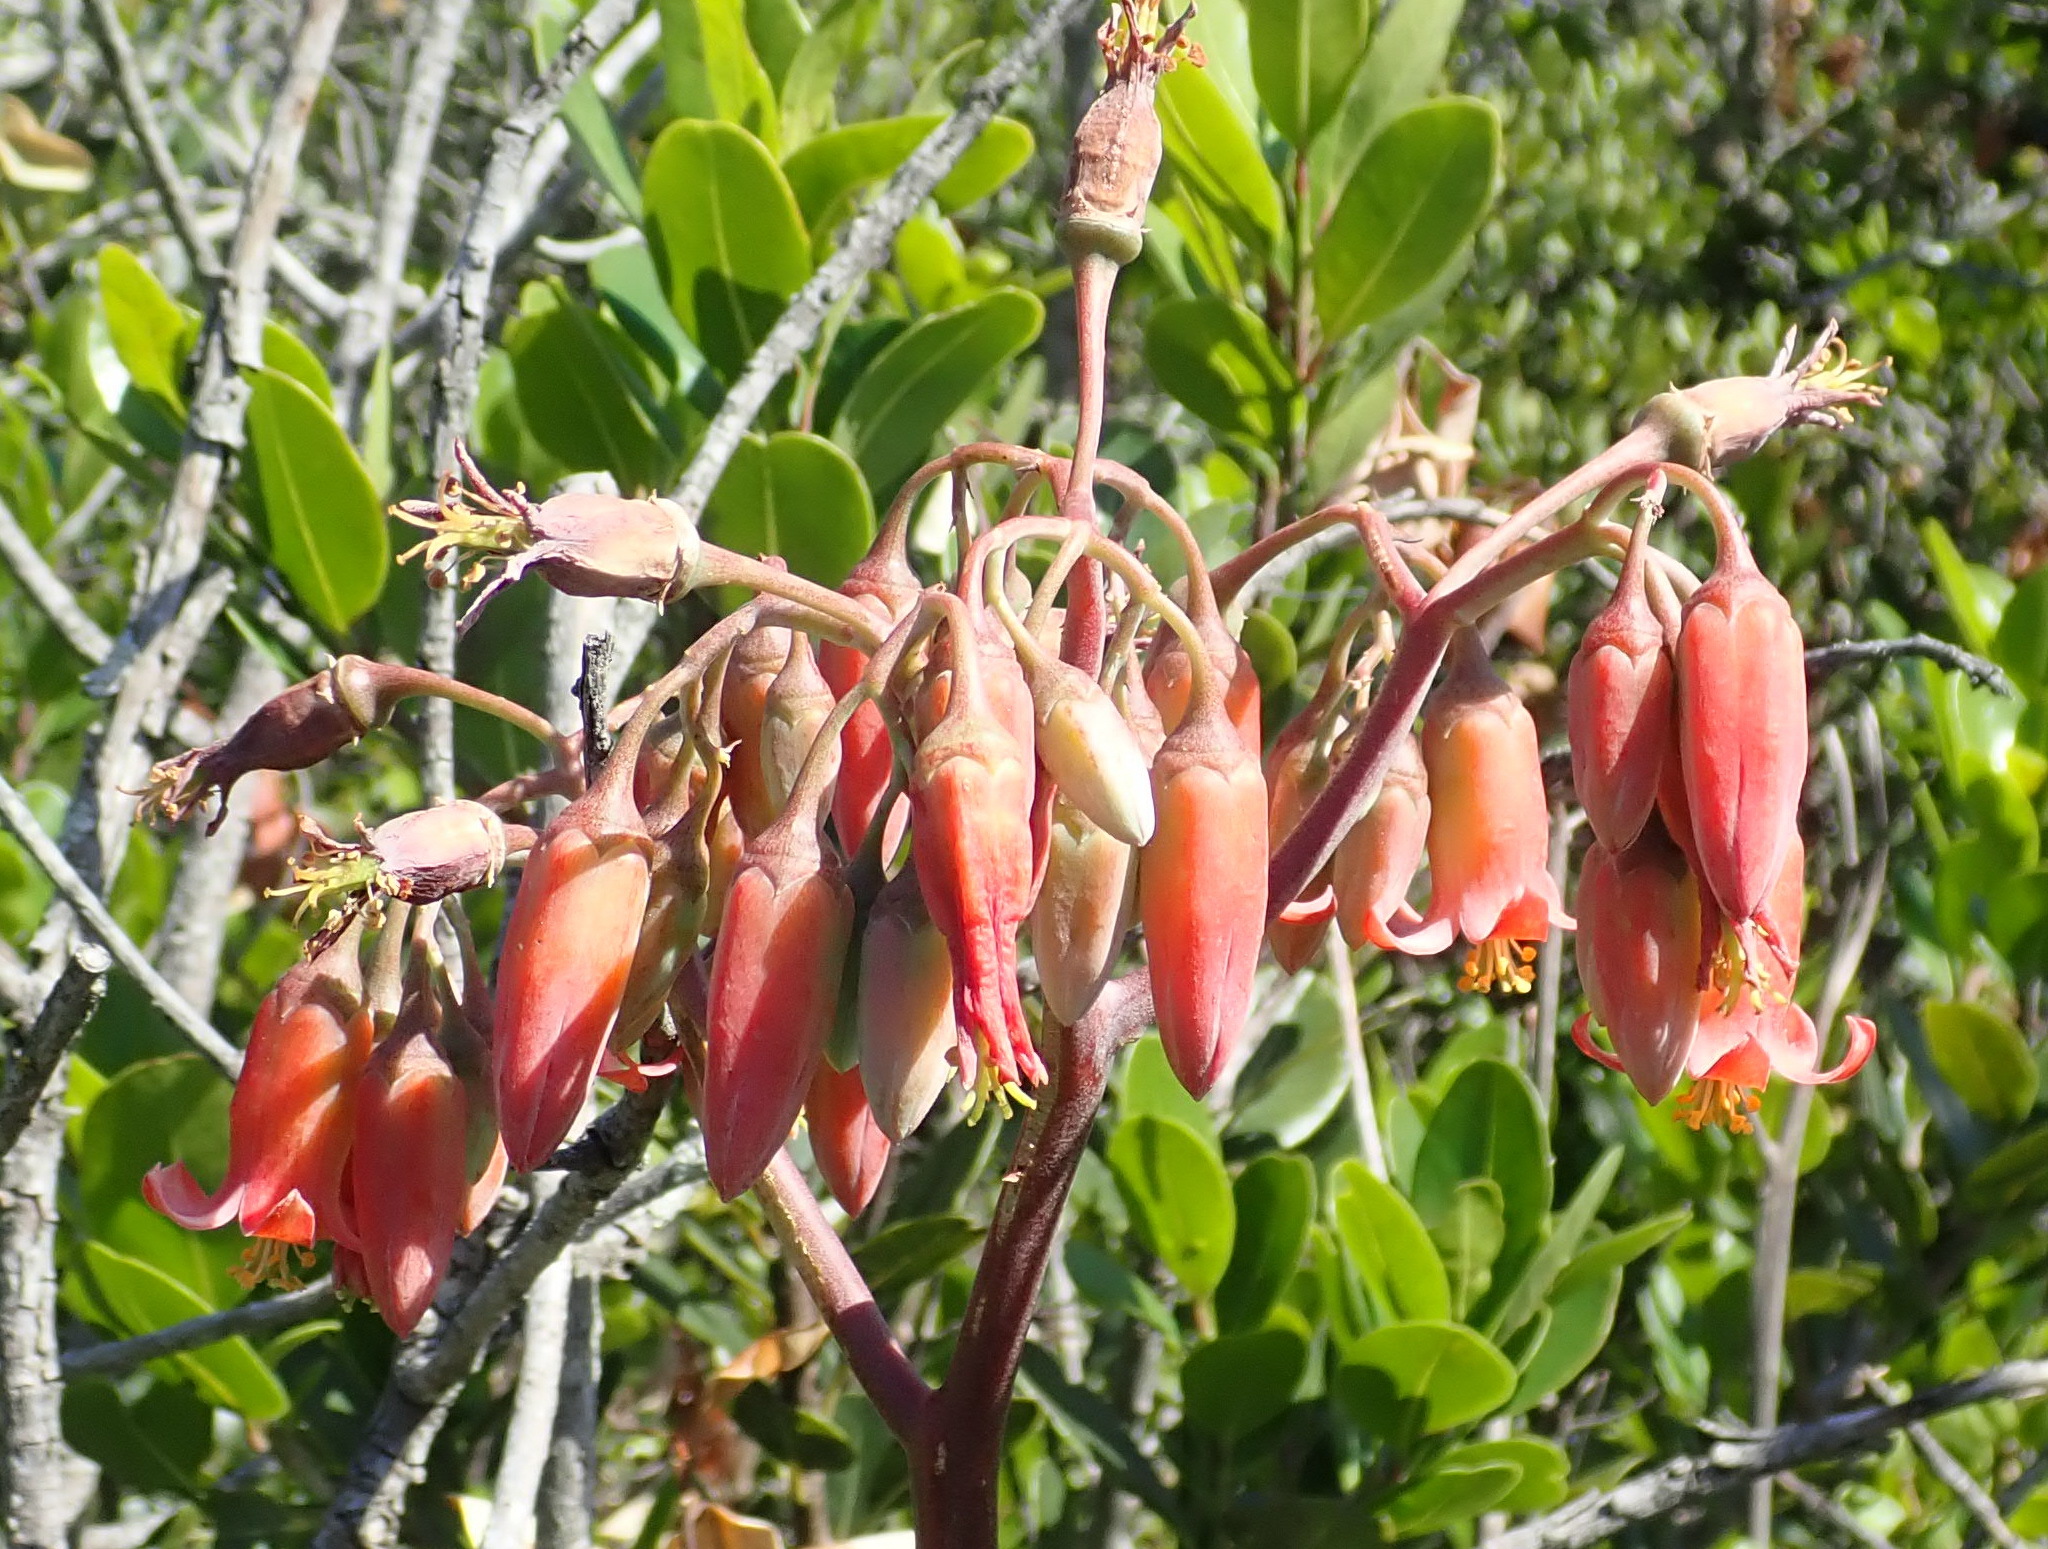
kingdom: Plantae
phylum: Tracheophyta
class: Magnoliopsida
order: Saxifragales
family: Crassulaceae
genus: Cotyledon
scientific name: Cotyledon orbiculata
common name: Pig's ear
